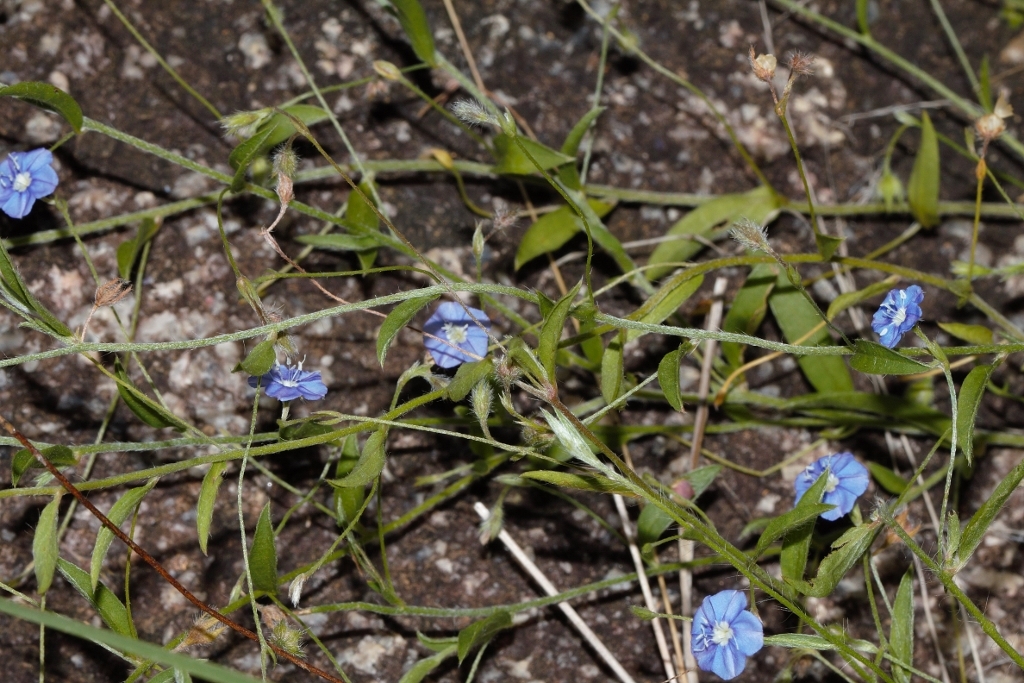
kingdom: Plantae
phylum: Tracheophyta
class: Magnoliopsida
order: Solanales
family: Convolvulaceae
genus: Evolvulus
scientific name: Evolvulus alsinoides
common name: Slender dwarf morning-glory
